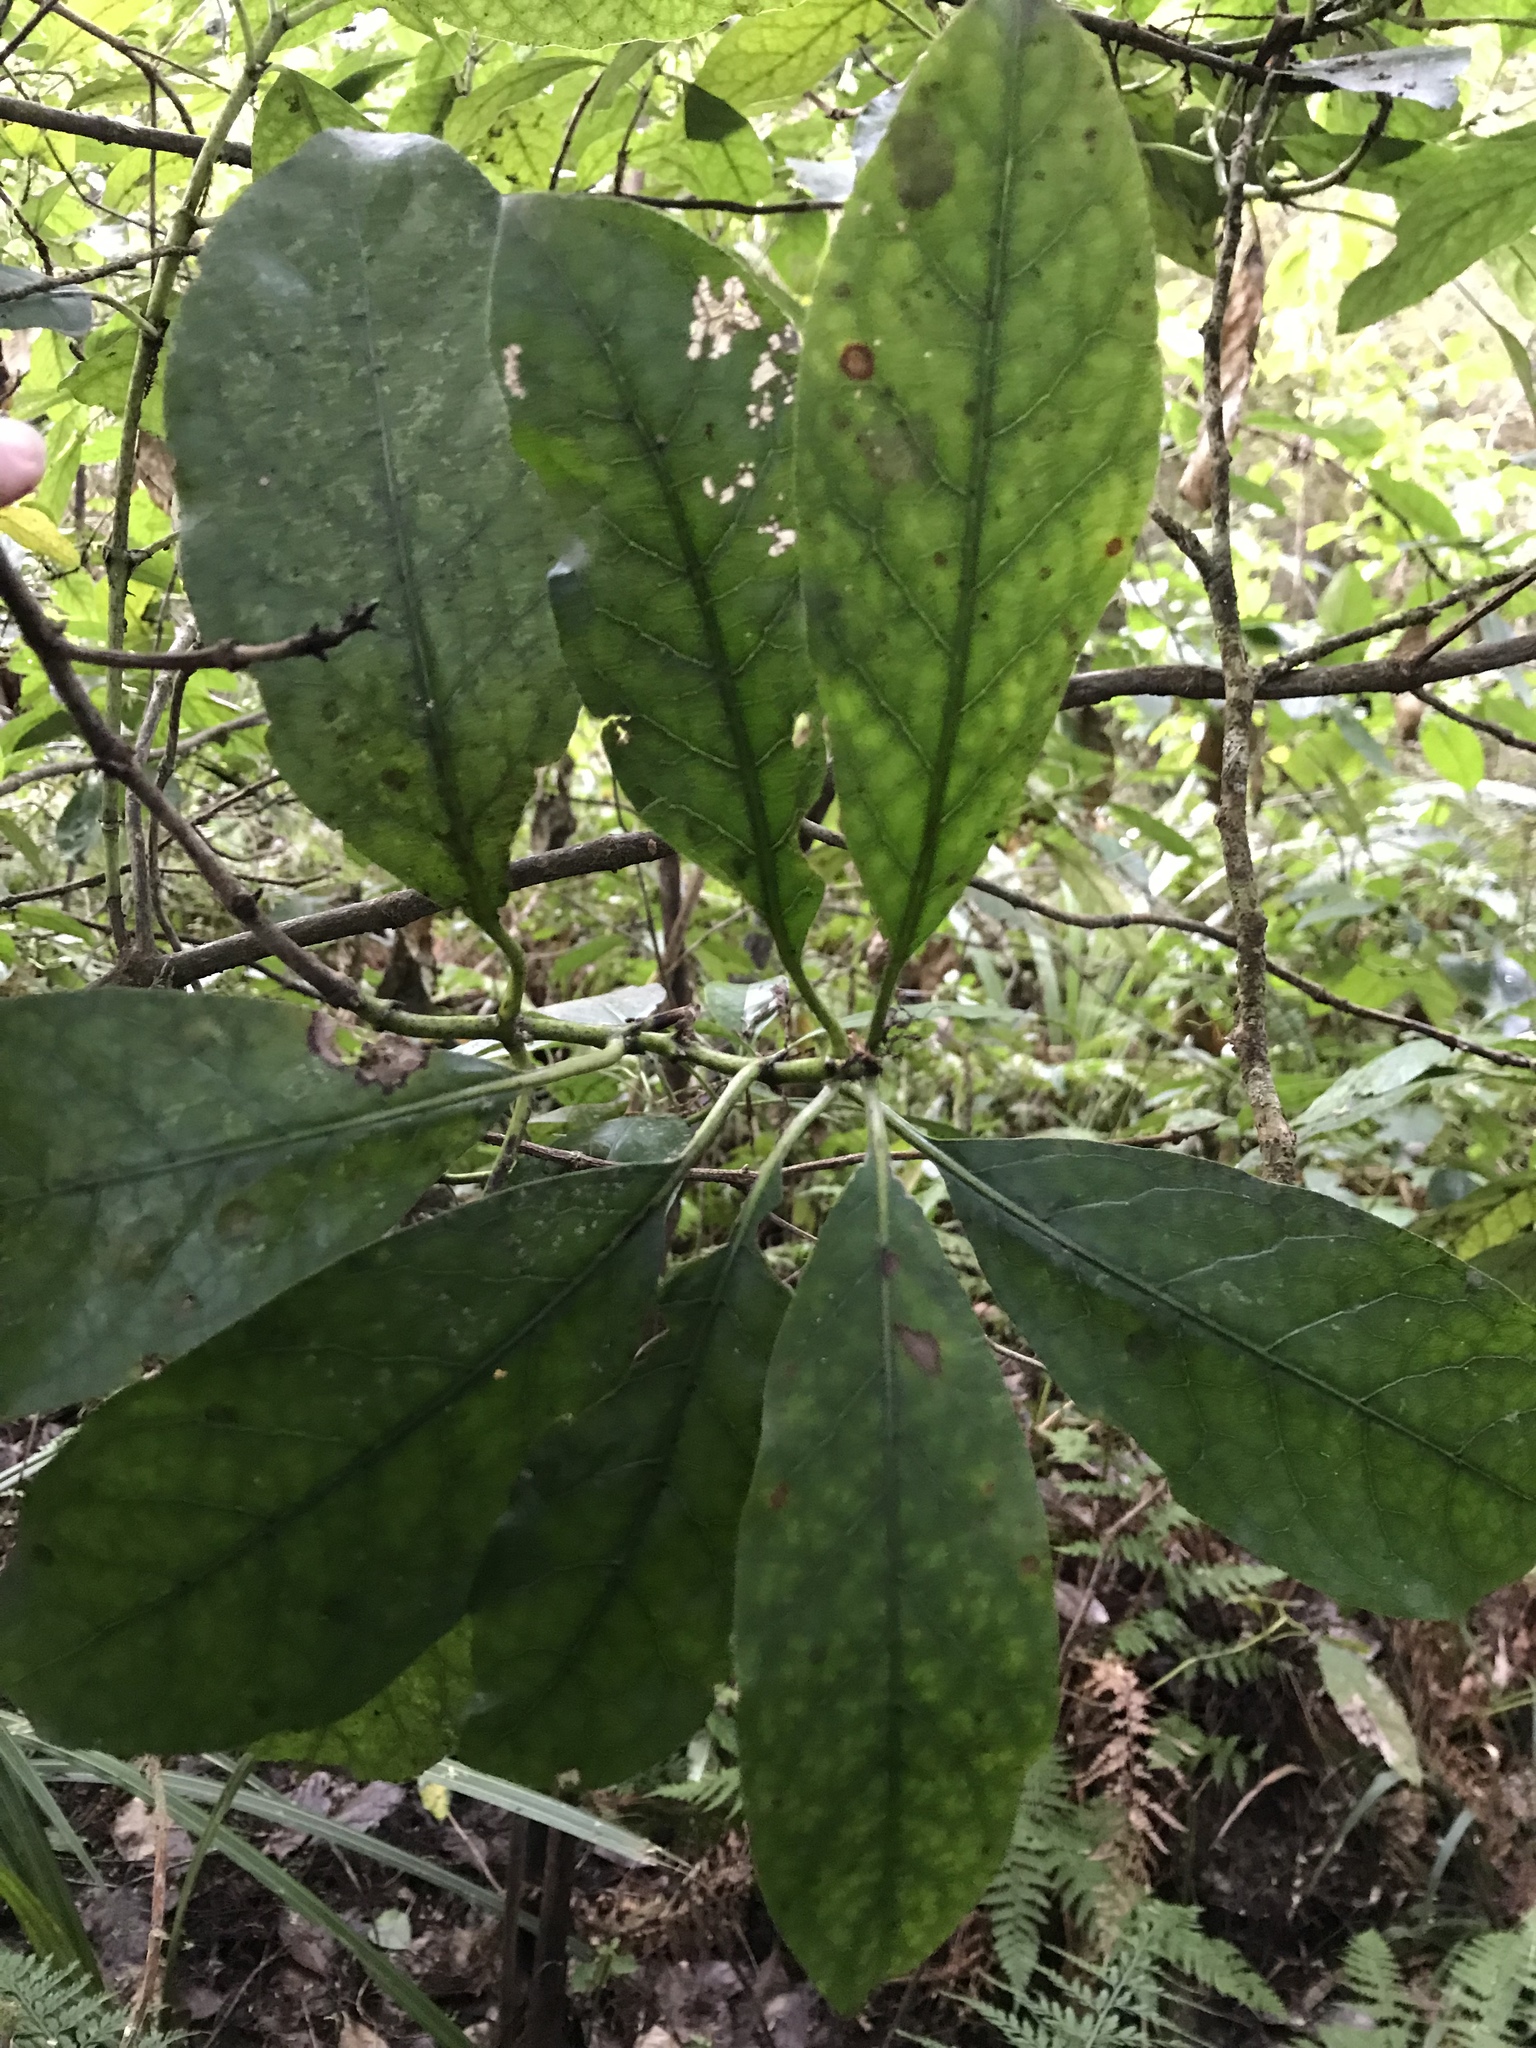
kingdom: Plantae
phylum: Tracheophyta
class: Magnoliopsida
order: Gentianales
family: Rubiaceae
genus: Coprosma
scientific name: Coprosma autumnalis
